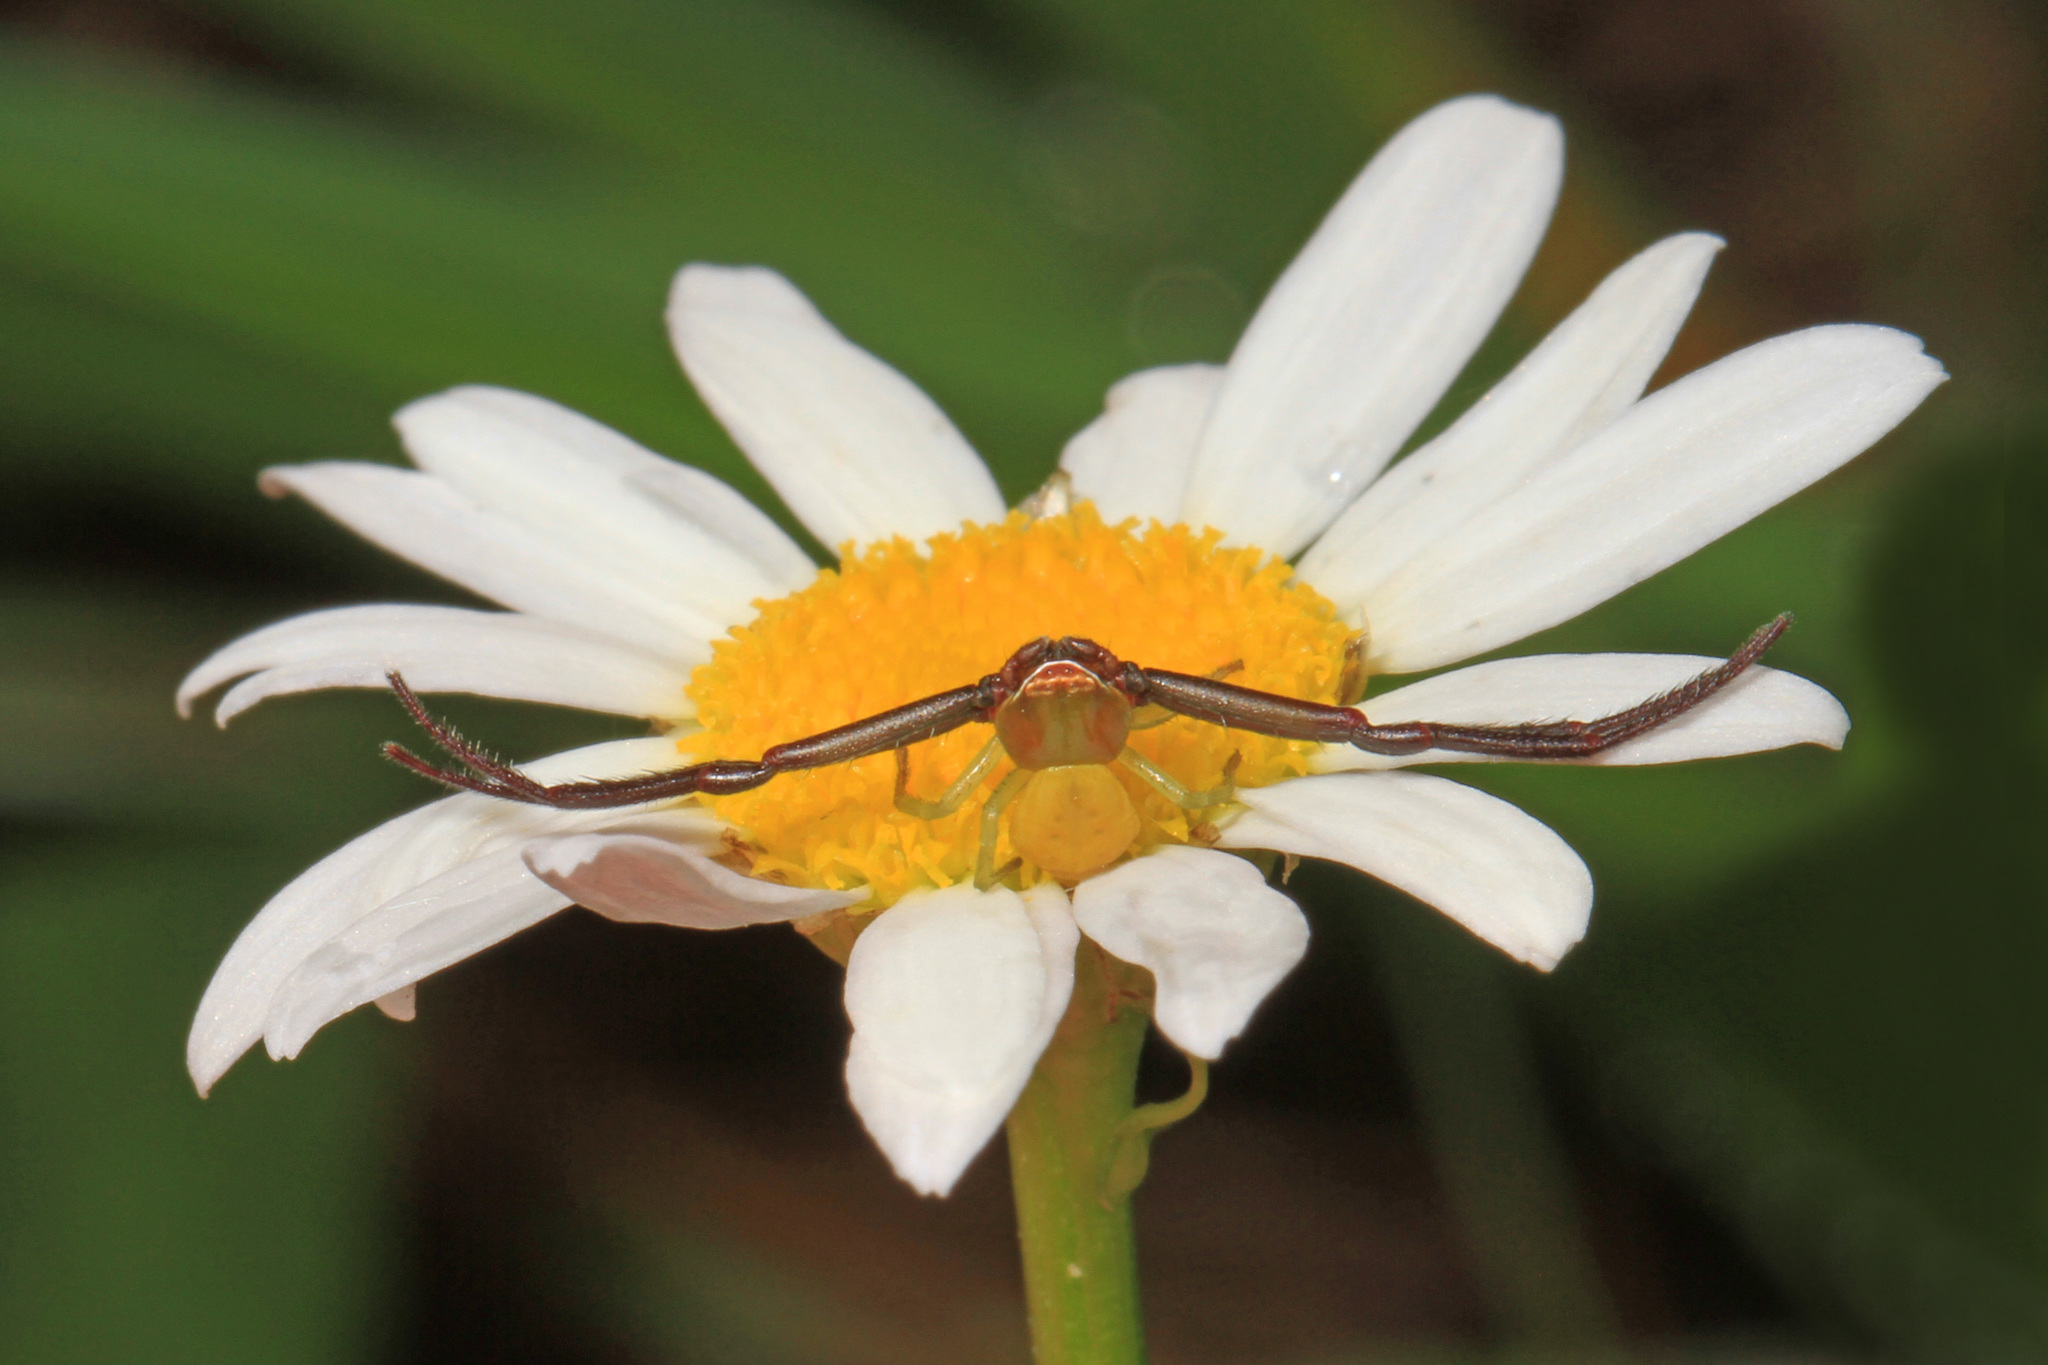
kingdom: Animalia
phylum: Arthropoda
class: Arachnida
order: Araneae
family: Thomisidae
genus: Misumenoides
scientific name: Misumenoides formosipes
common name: White-banded crab spider
